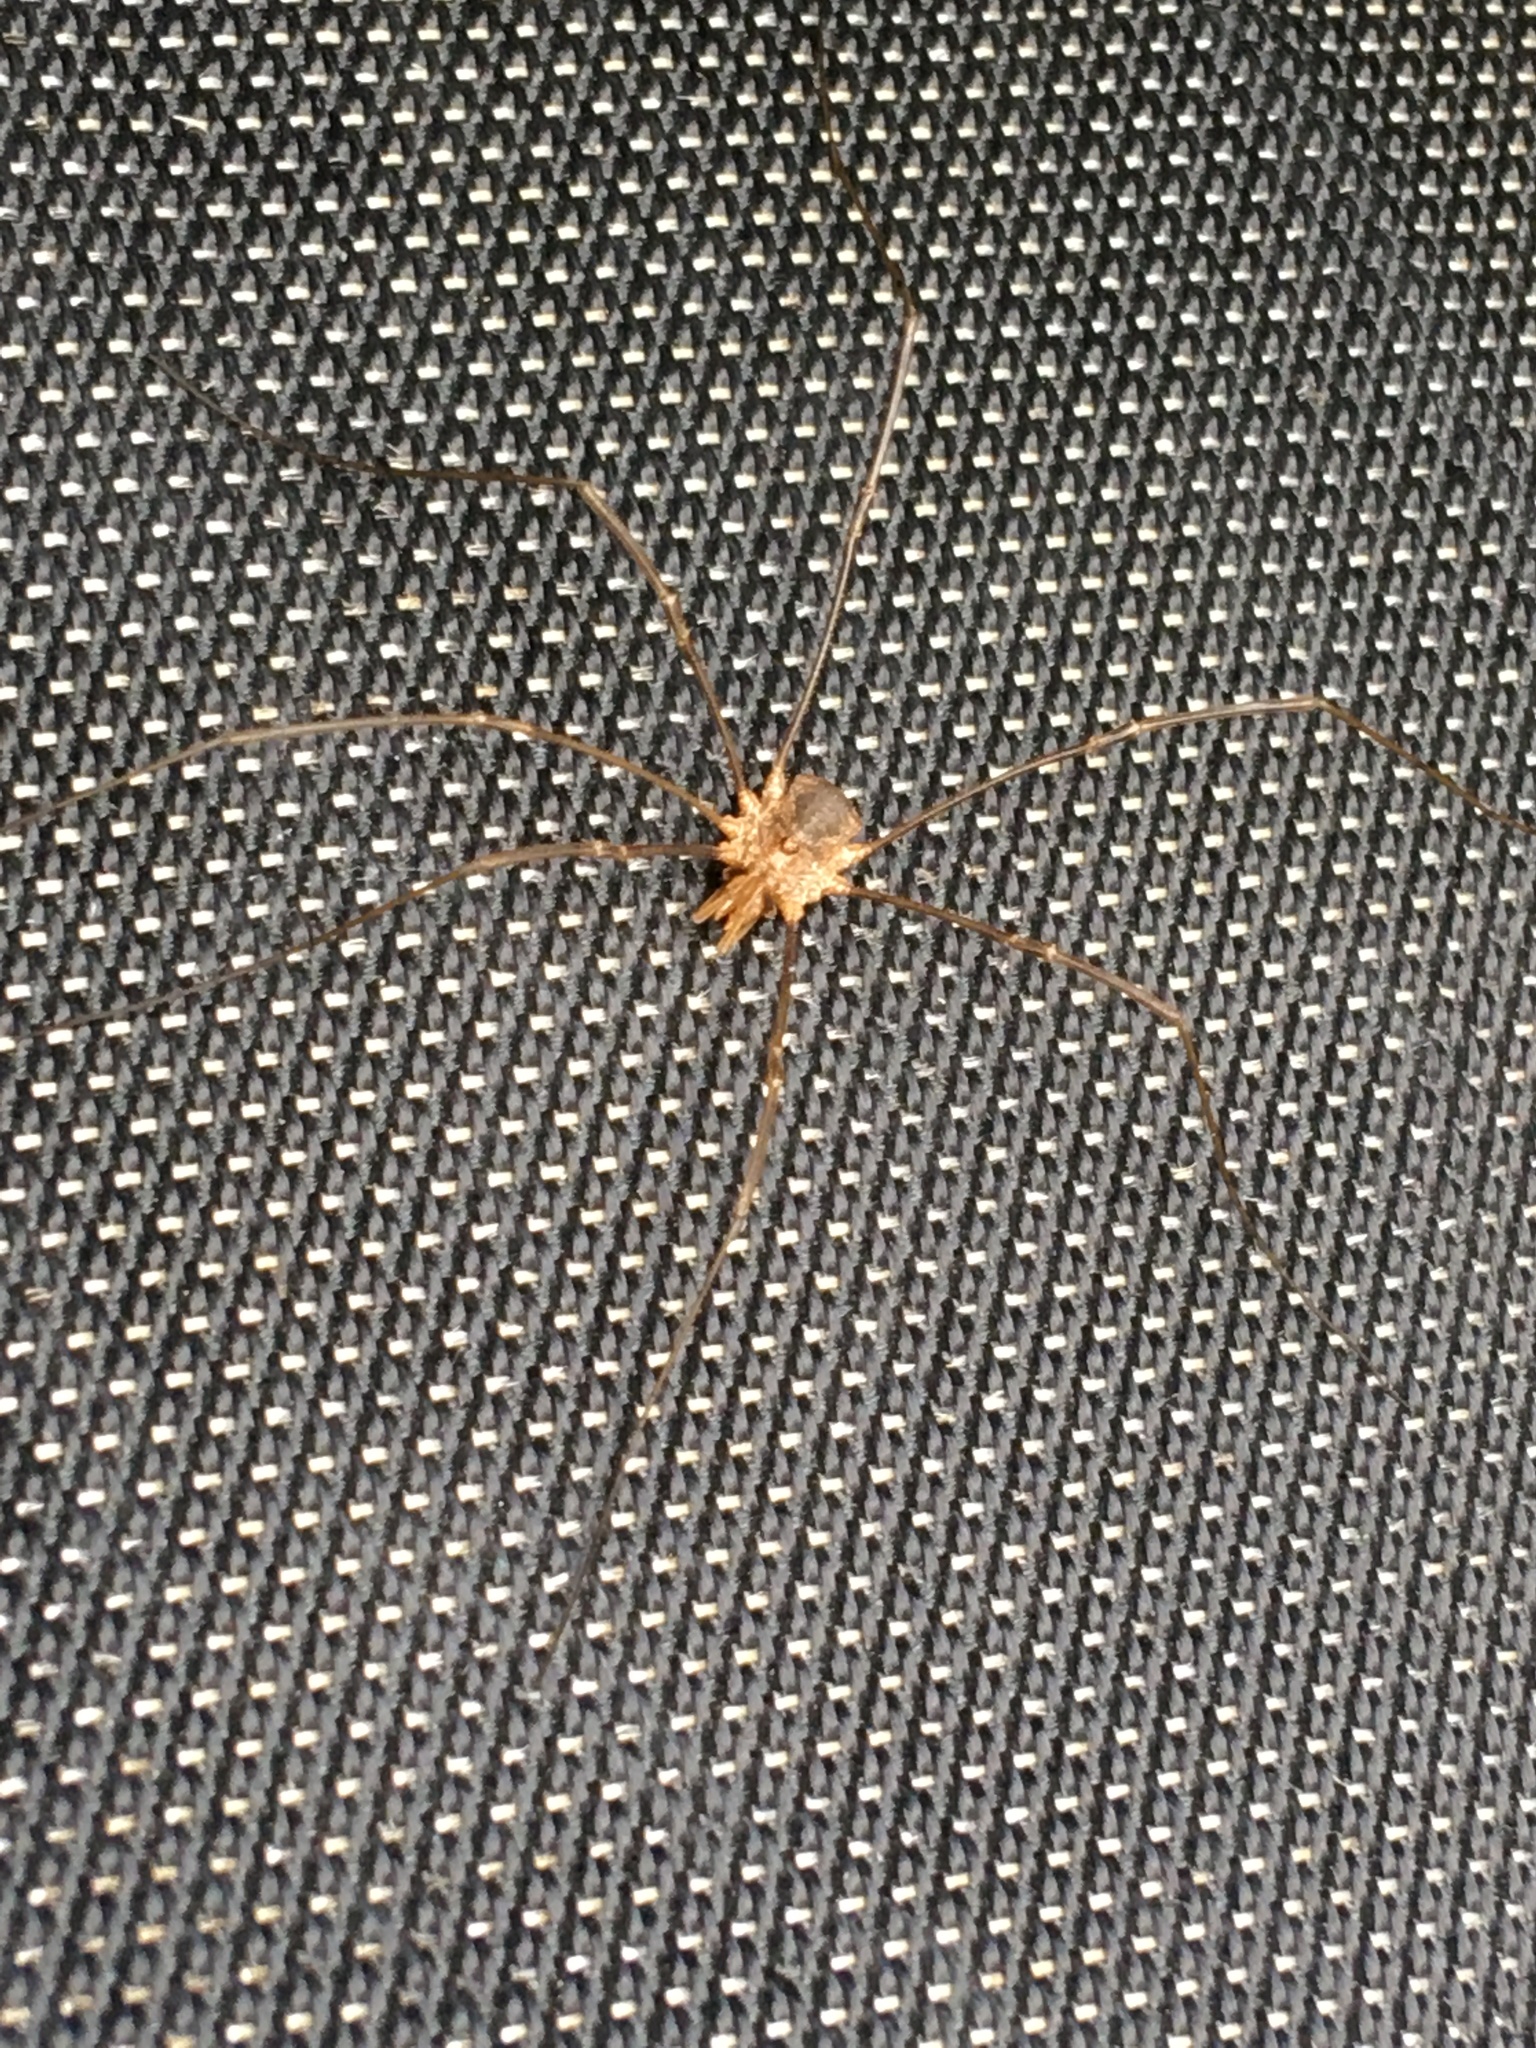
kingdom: Animalia
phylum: Arthropoda
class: Arachnida
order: Opiliones
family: Phalangiidae
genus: Phalangium
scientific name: Phalangium opilio
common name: Daddy longleg
